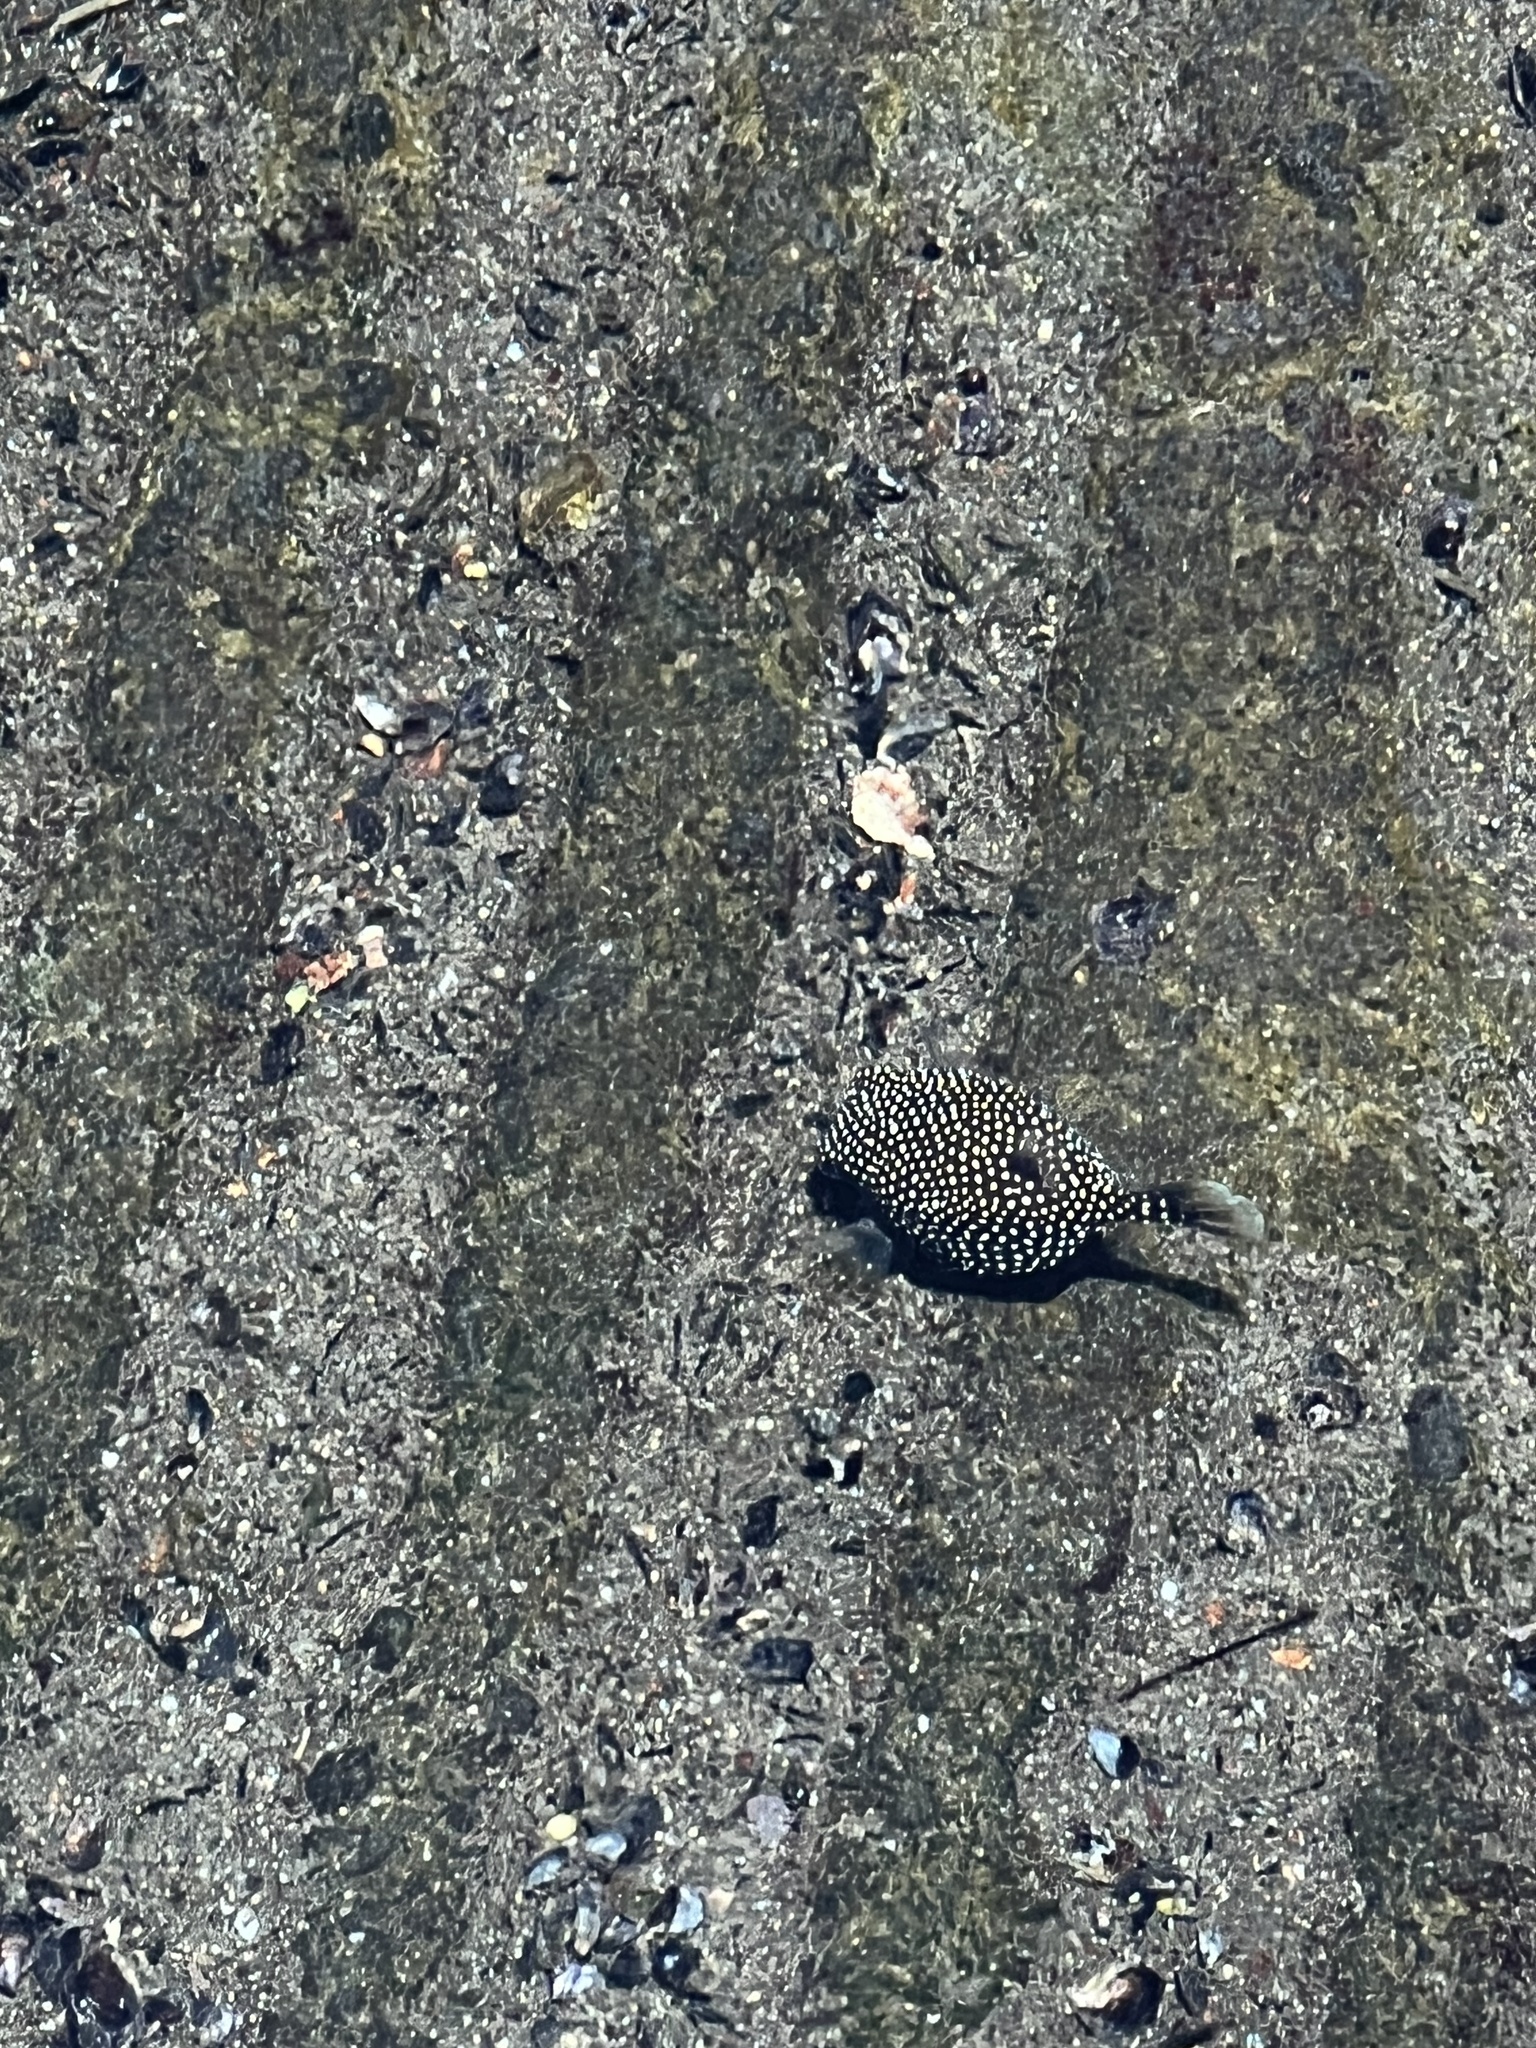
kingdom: Animalia
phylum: Chordata
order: Tetraodontiformes
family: Ostraciidae
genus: Ostracion
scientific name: Ostracion meleagris
